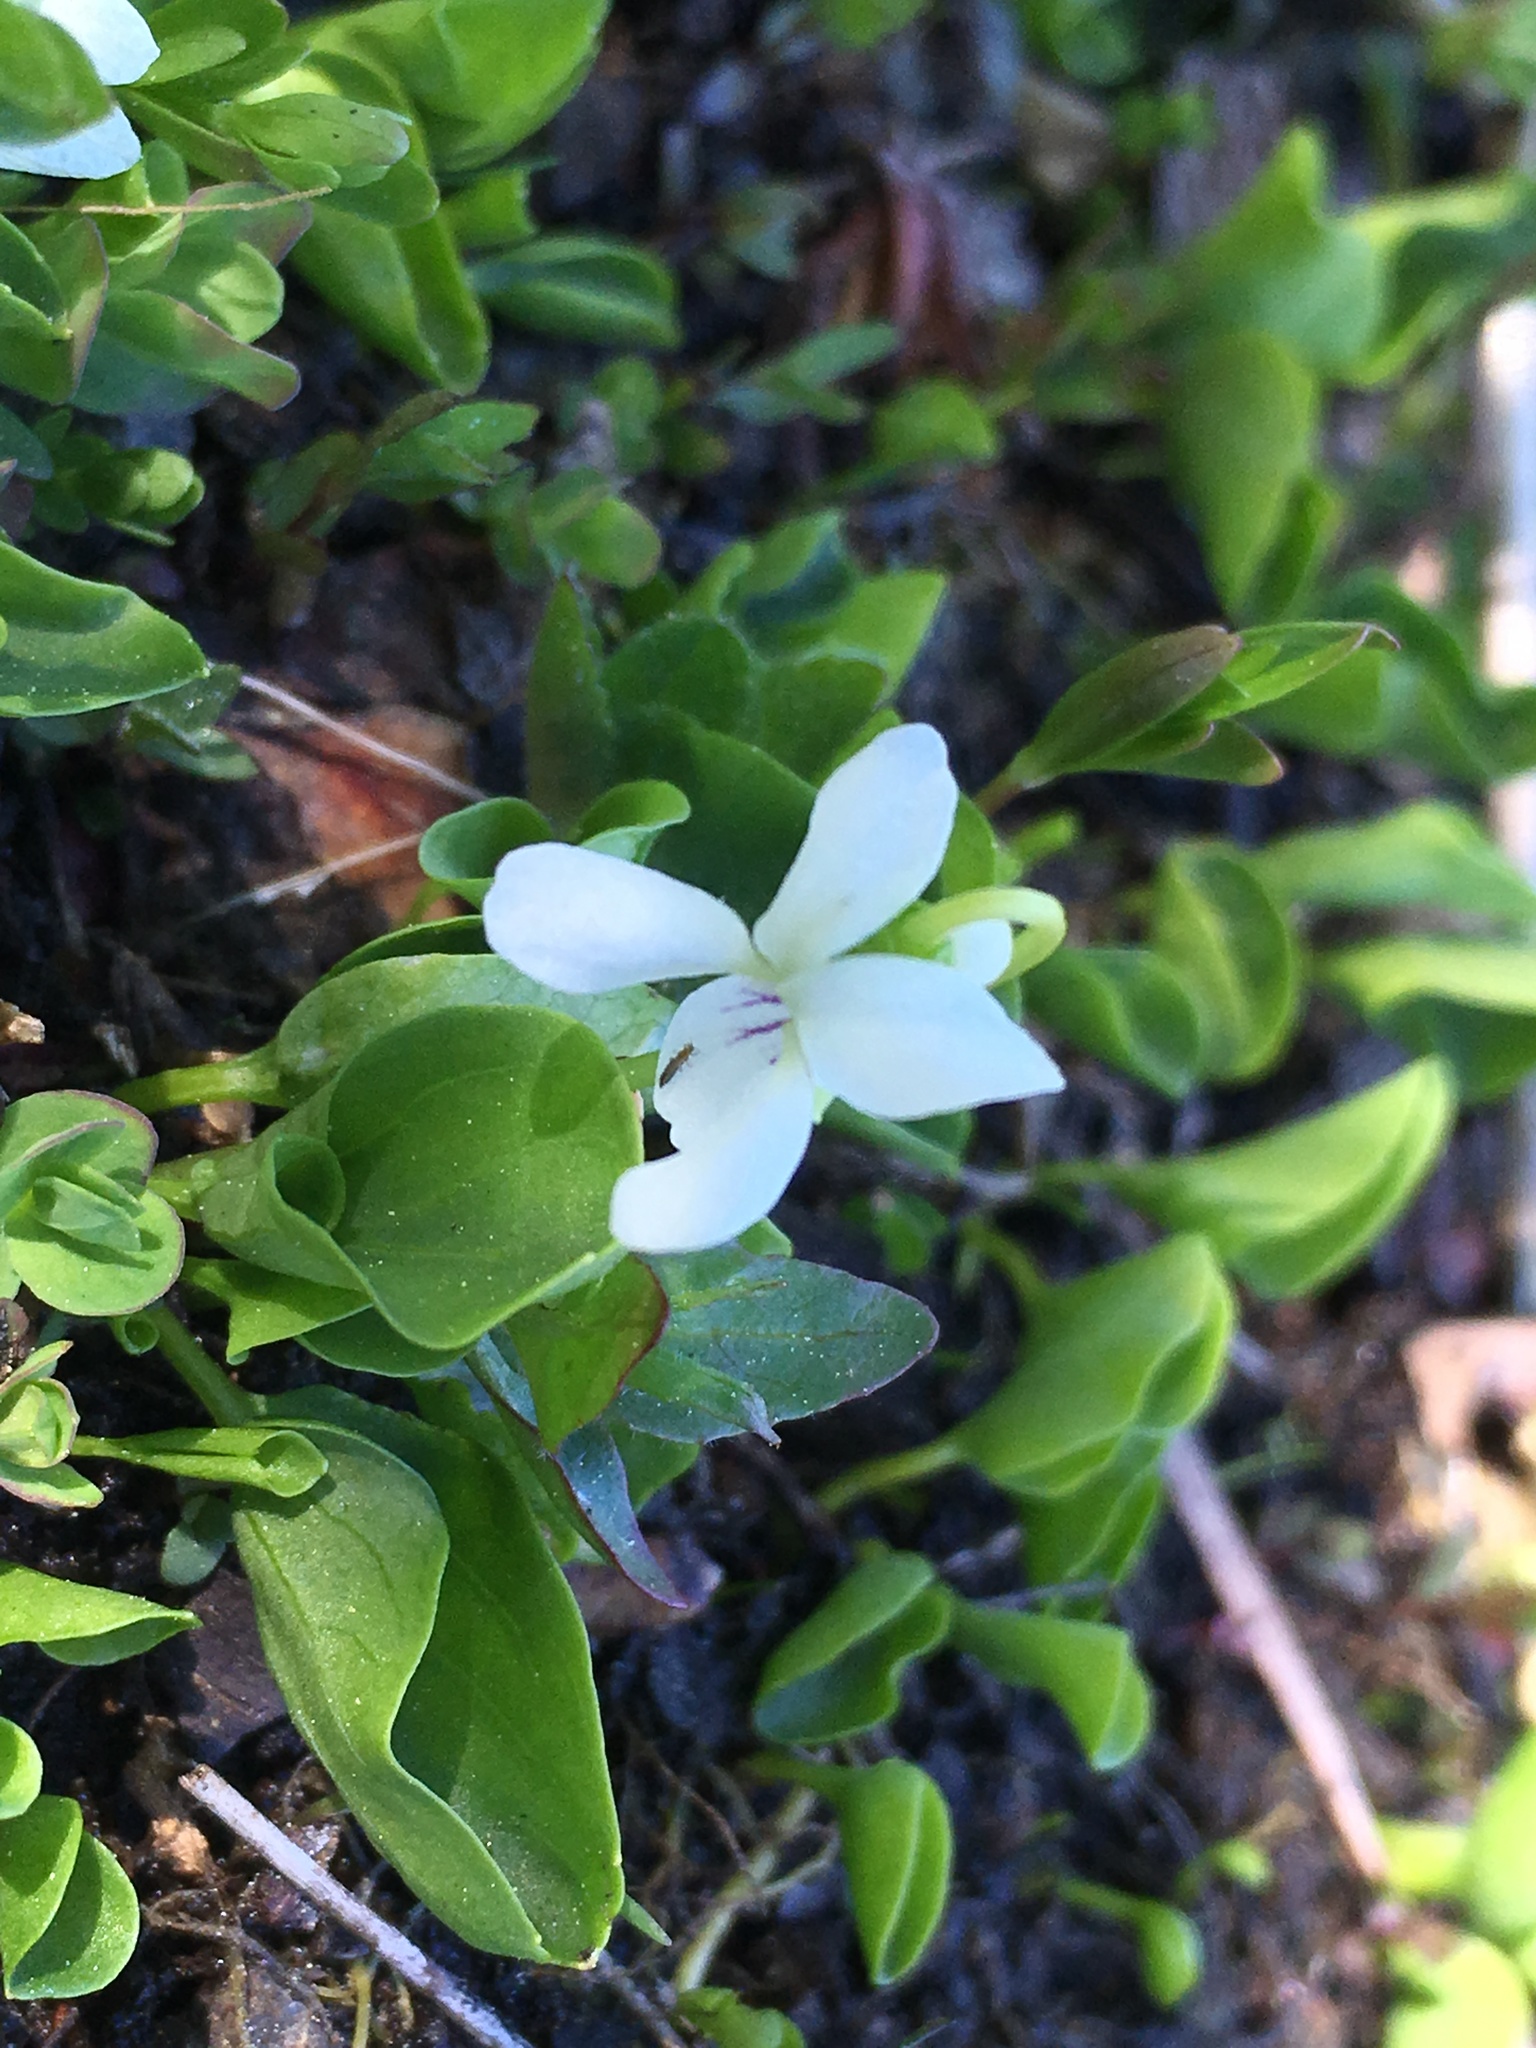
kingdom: Plantae
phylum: Tracheophyta
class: Magnoliopsida
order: Malpighiales
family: Violaceae
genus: Viola
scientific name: Viola macloskeyi
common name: Macloskey's violet
